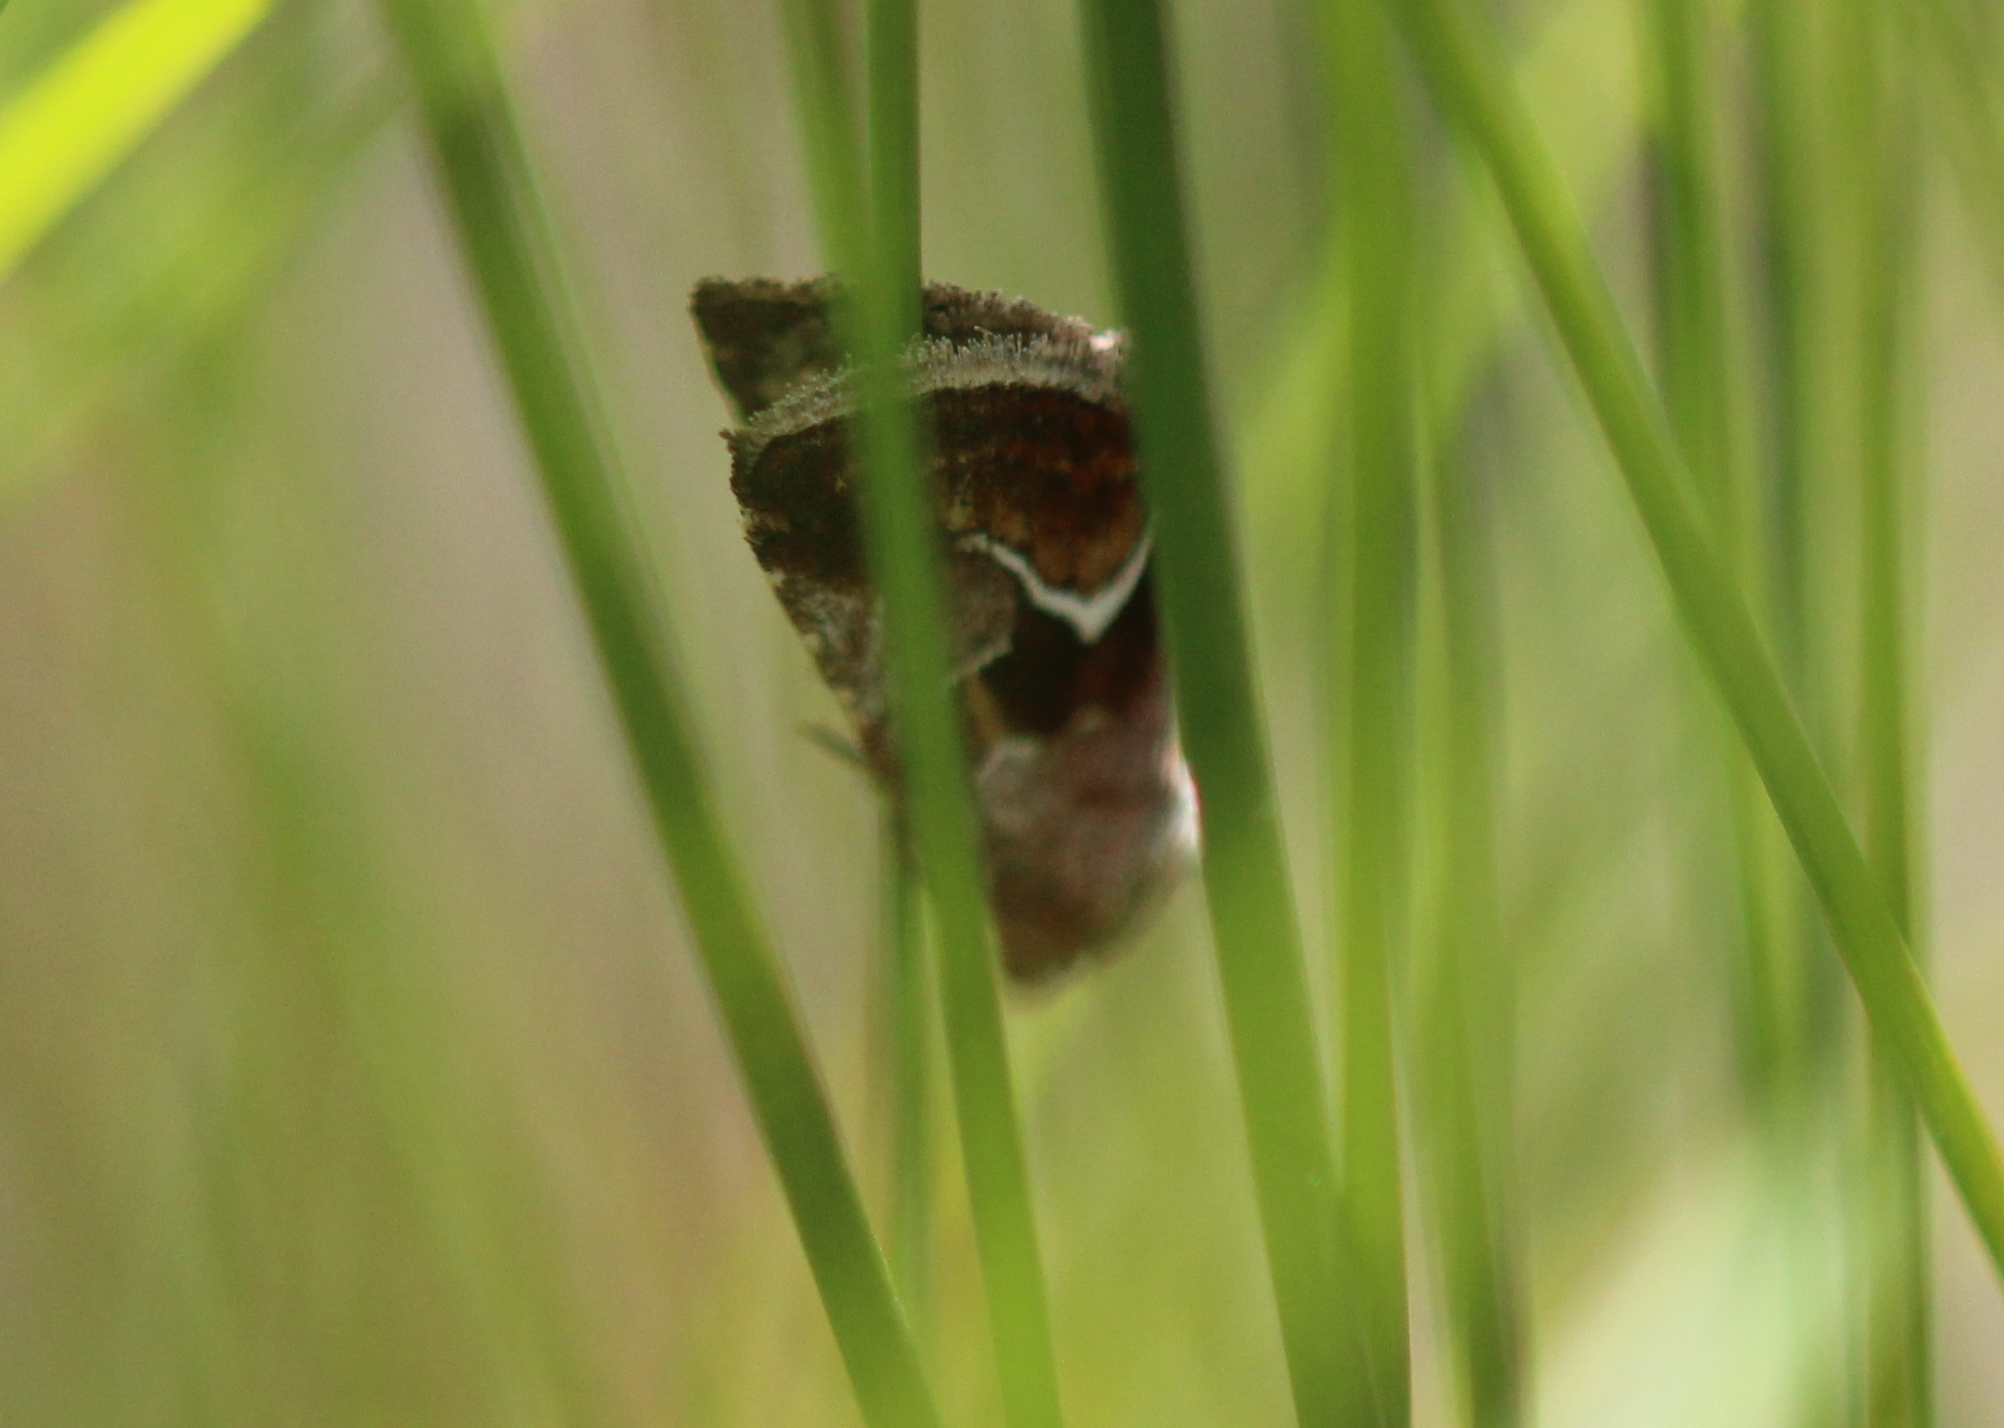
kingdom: Animalia
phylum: Arthropoda
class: Insecta
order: Lepidoptera
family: Noctuidae
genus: Deltote
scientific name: Deltote bellicula
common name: Bog glyph
